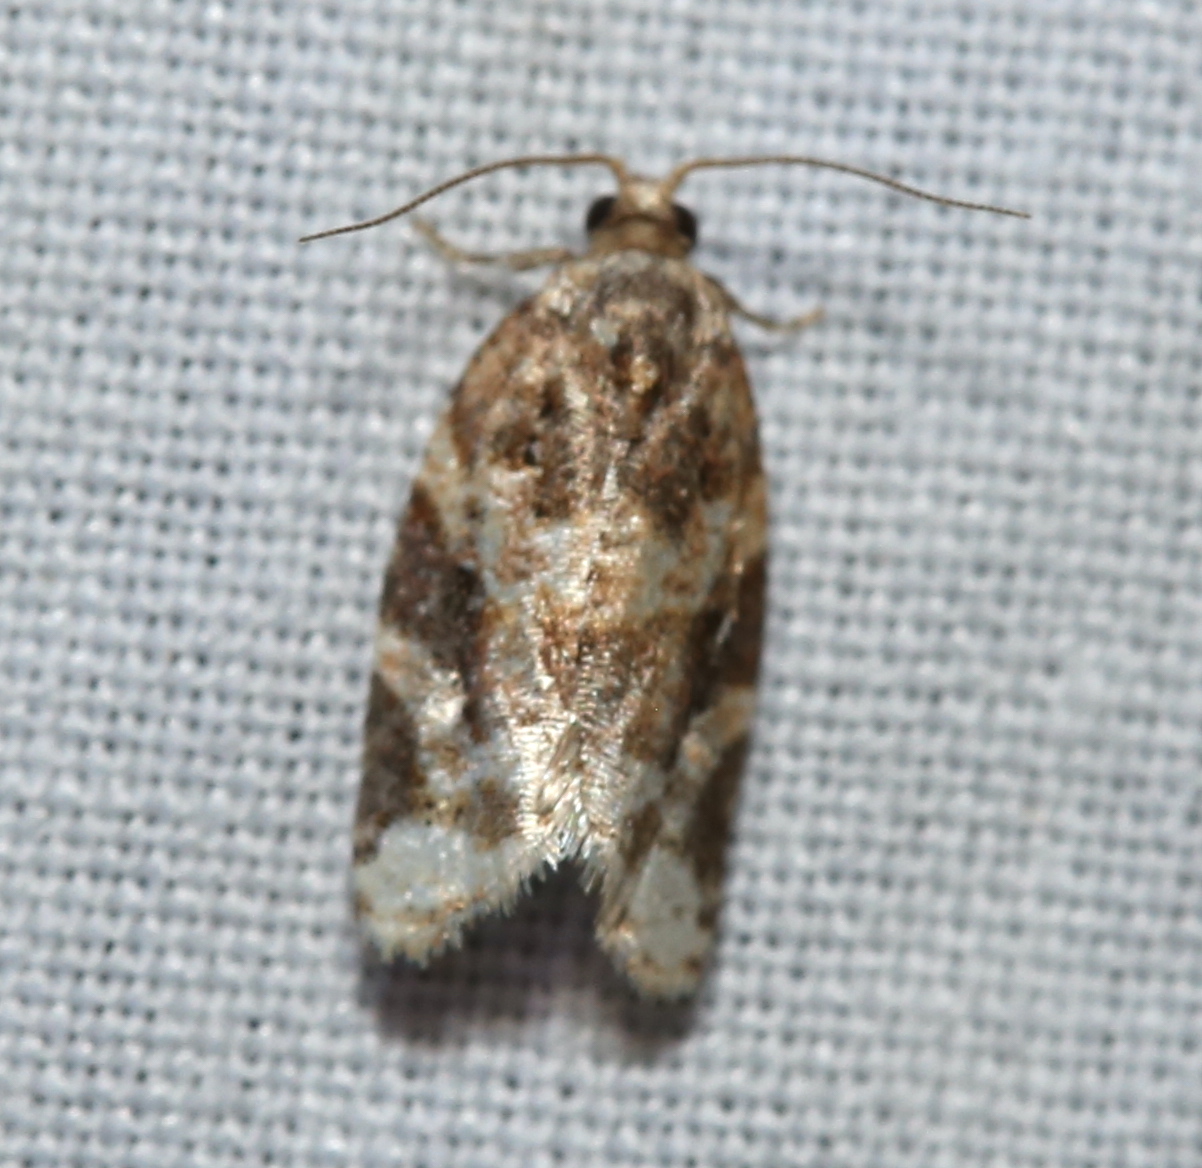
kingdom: Animalia
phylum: Arthropoda
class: Insecta
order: Lepidoptera
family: Tortricidae
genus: Argyrotaenia
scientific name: Argyrotaenia velutinana
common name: Red-banded leafroller moth
